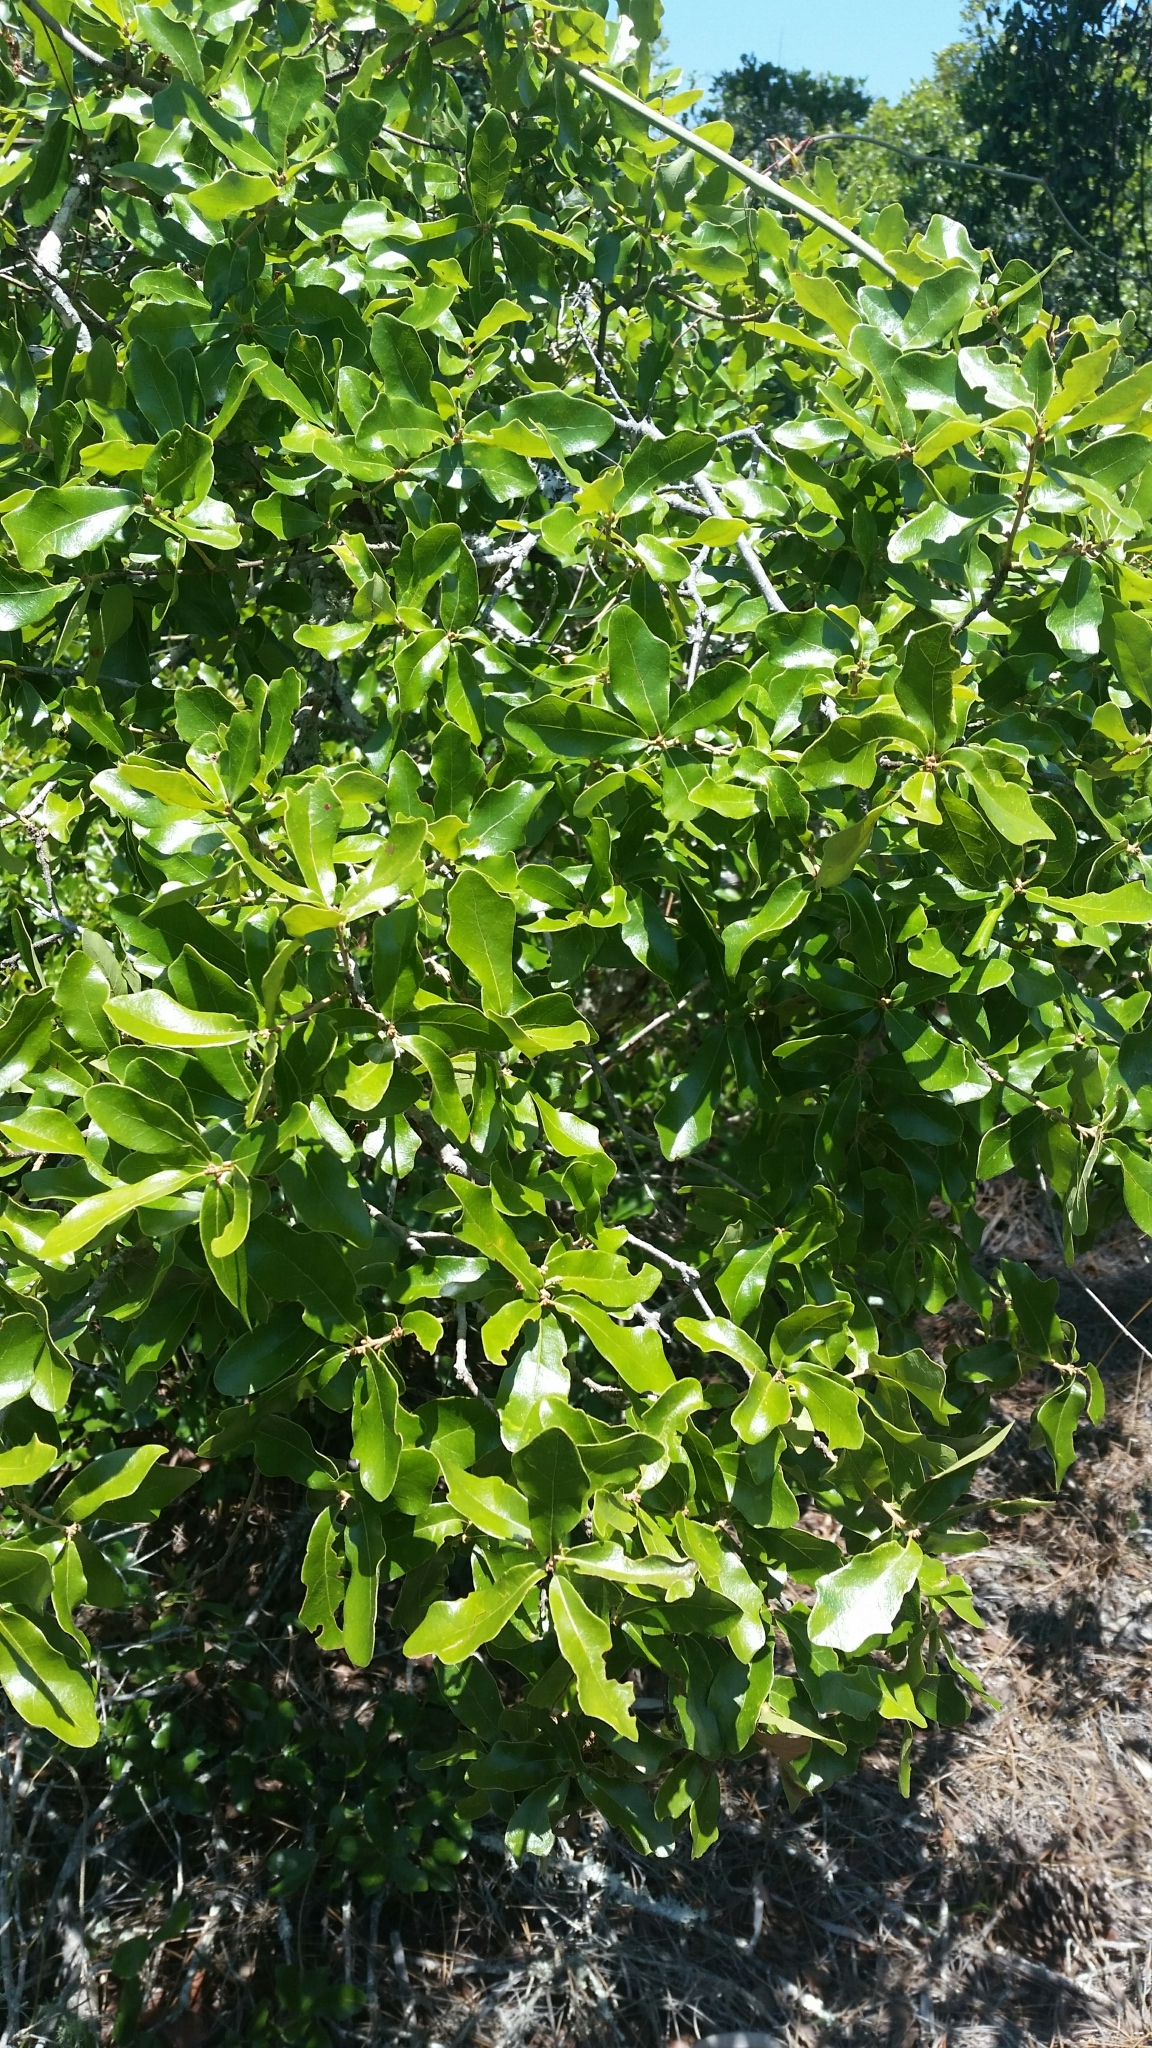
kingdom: Plantae
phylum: Tracheophyta
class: Magnoliopsida
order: Fagales
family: Fagaceae
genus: Quercus
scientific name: Quercus chapmanii
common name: Chapman oak
